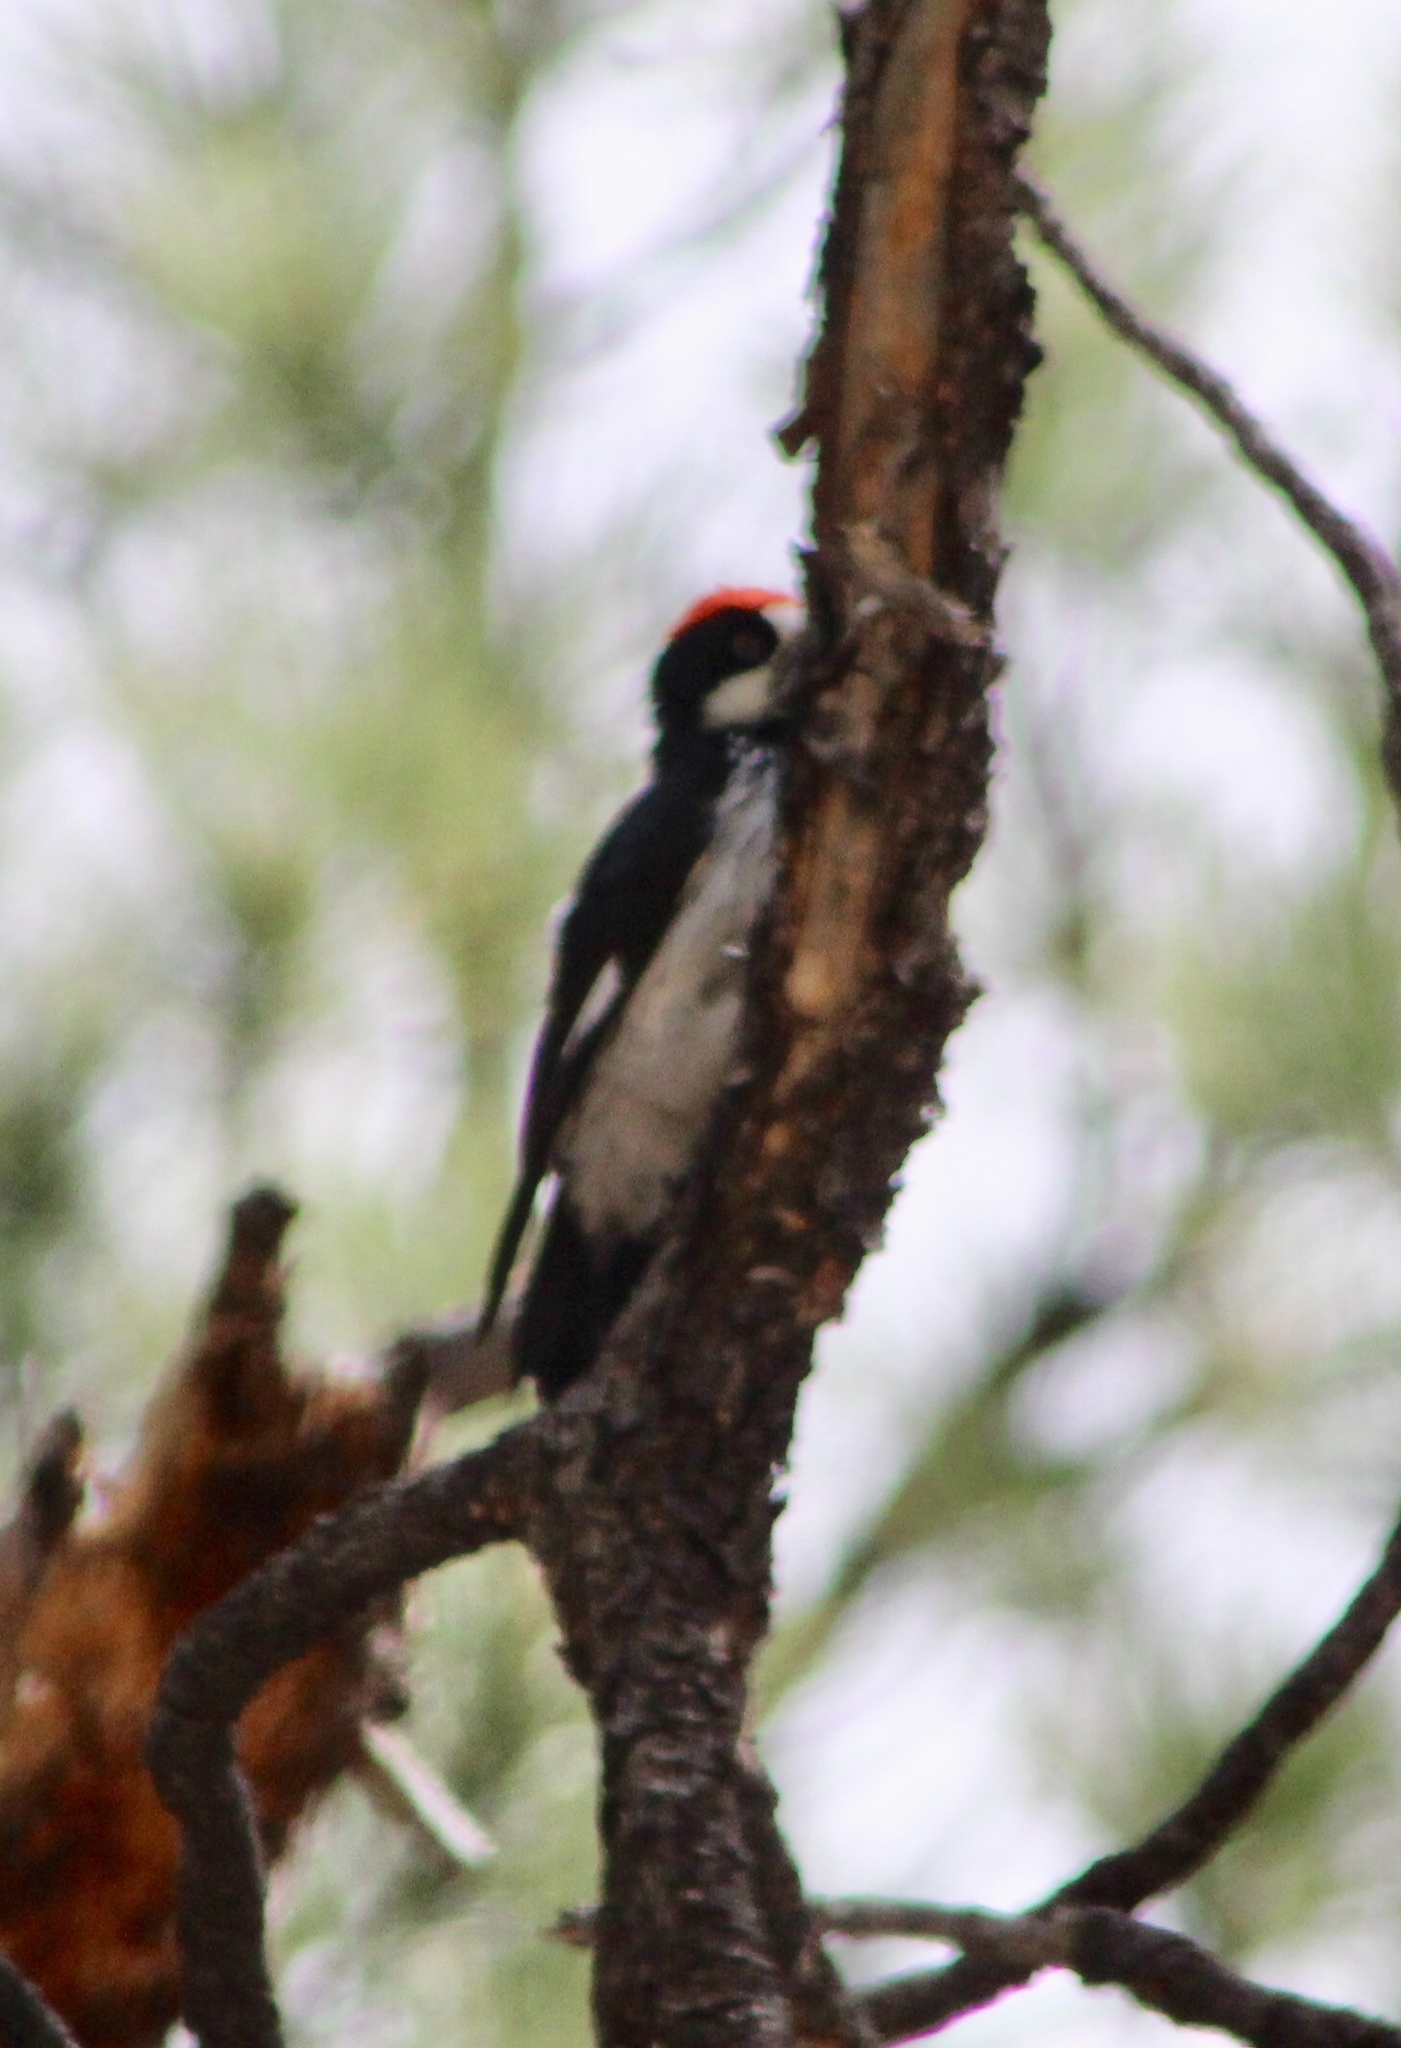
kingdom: Animalia
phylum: Chordata
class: Aves
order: Piciformes
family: Picidae
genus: Melanerpes
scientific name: Melanerpes formicivorus
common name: Acorn woodpecker
